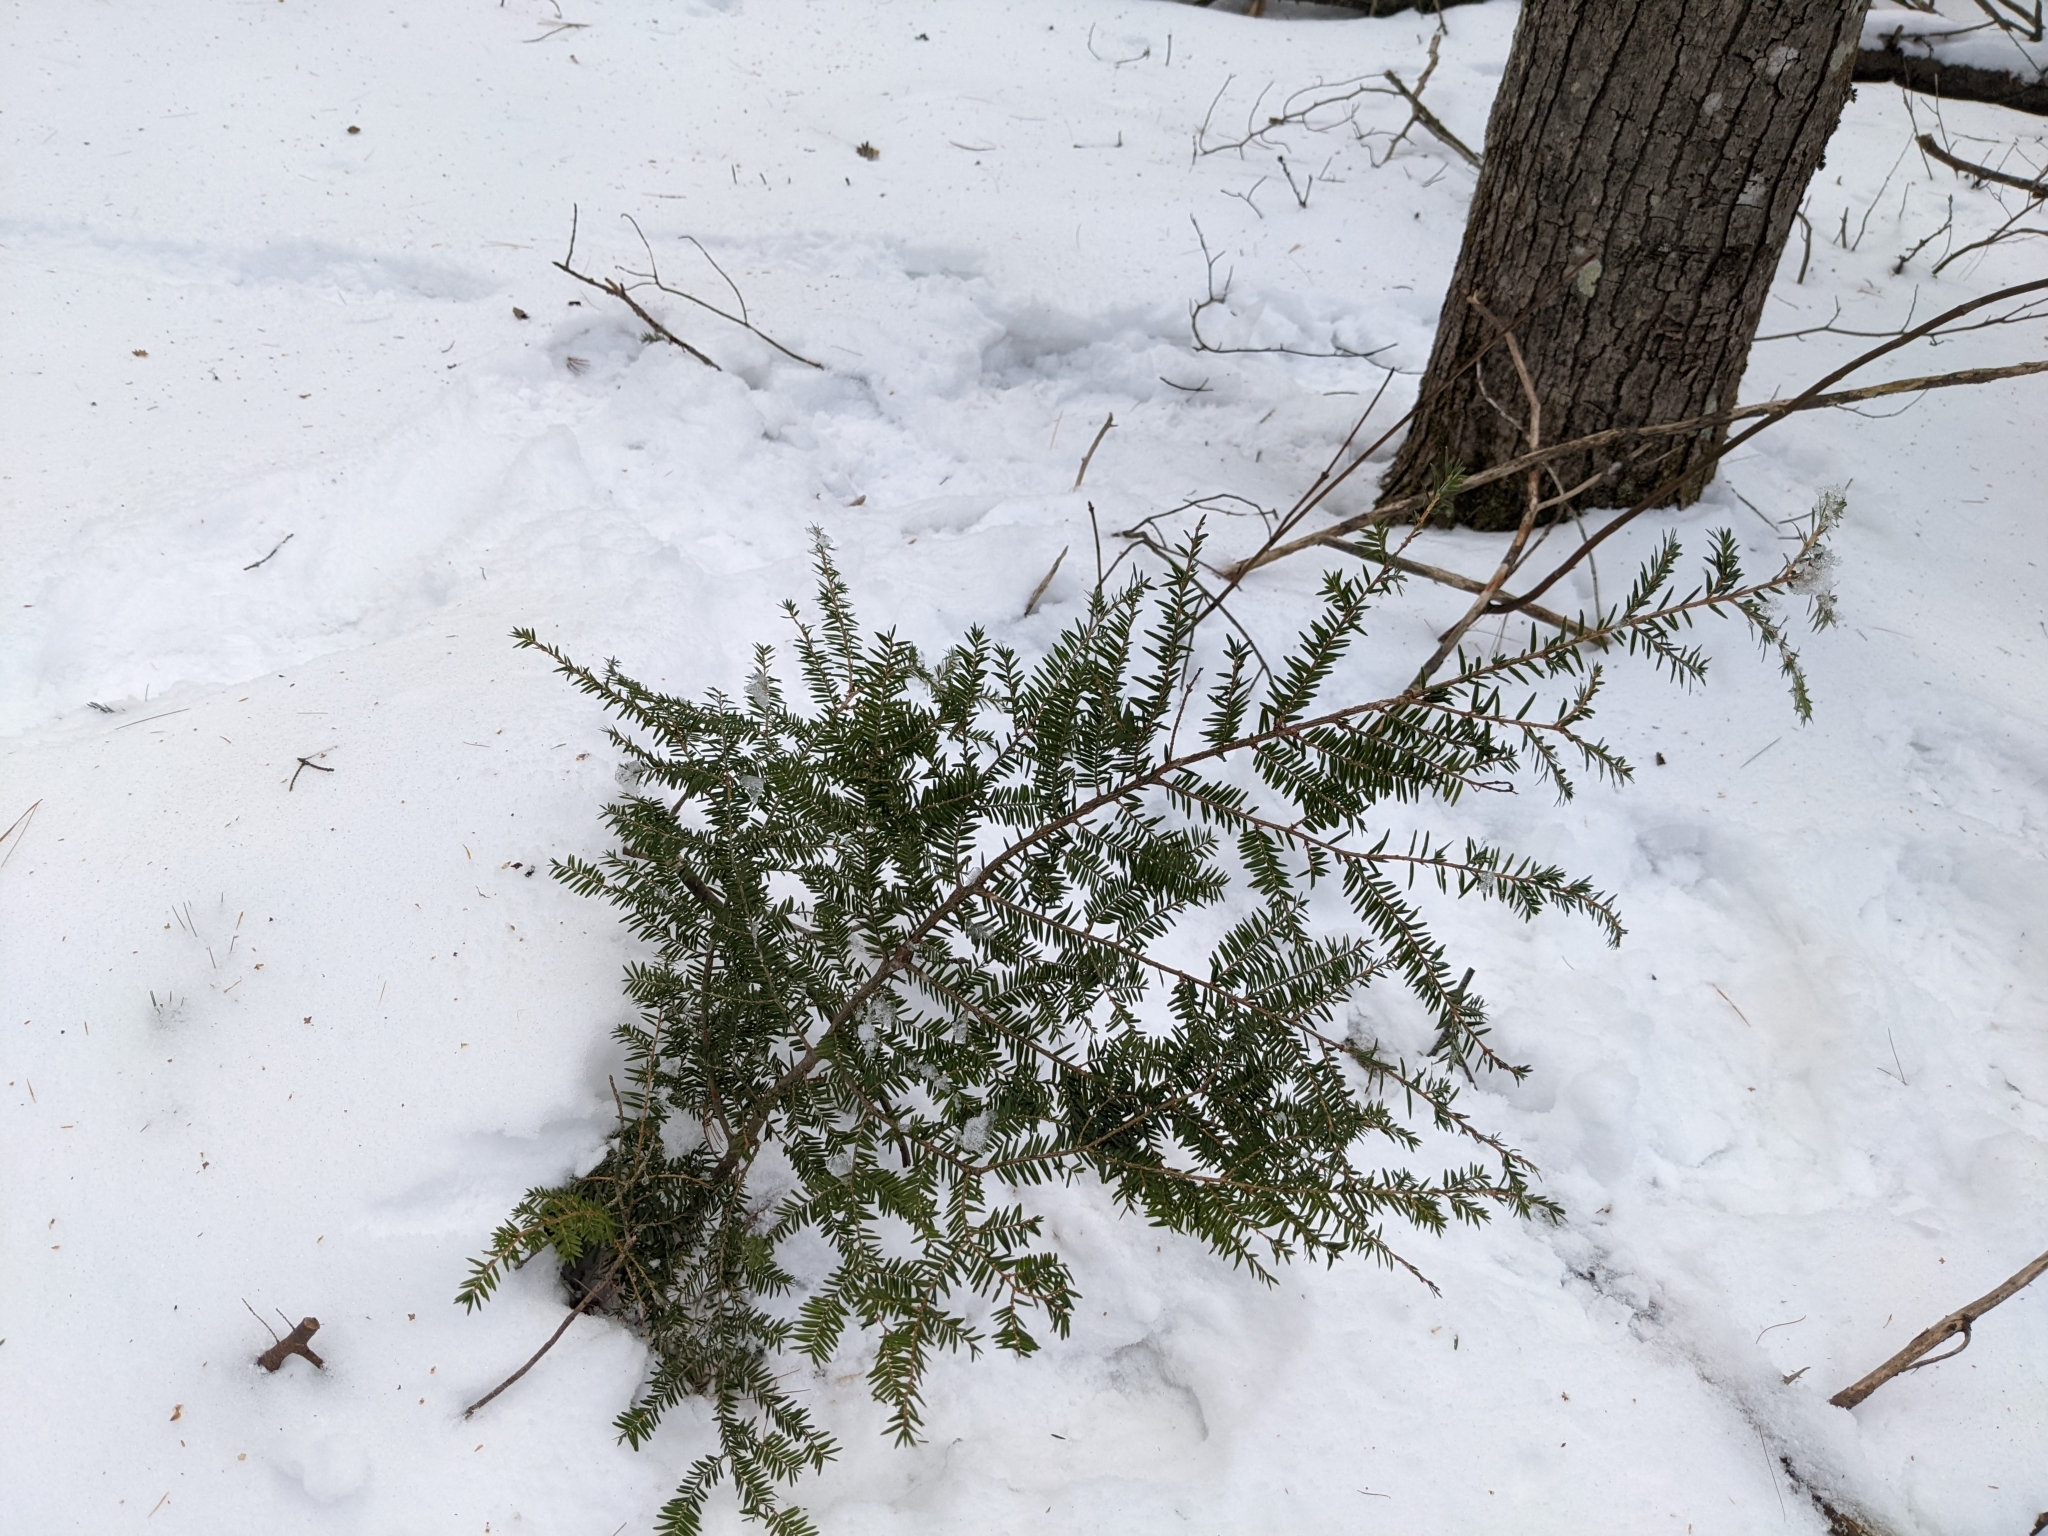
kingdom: Plantae
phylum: Tracheophyta
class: Pinopsida
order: Pinales
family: Pinaceae
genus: Tsuga
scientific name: Tsuga canadensis
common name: Eastern hemlock
